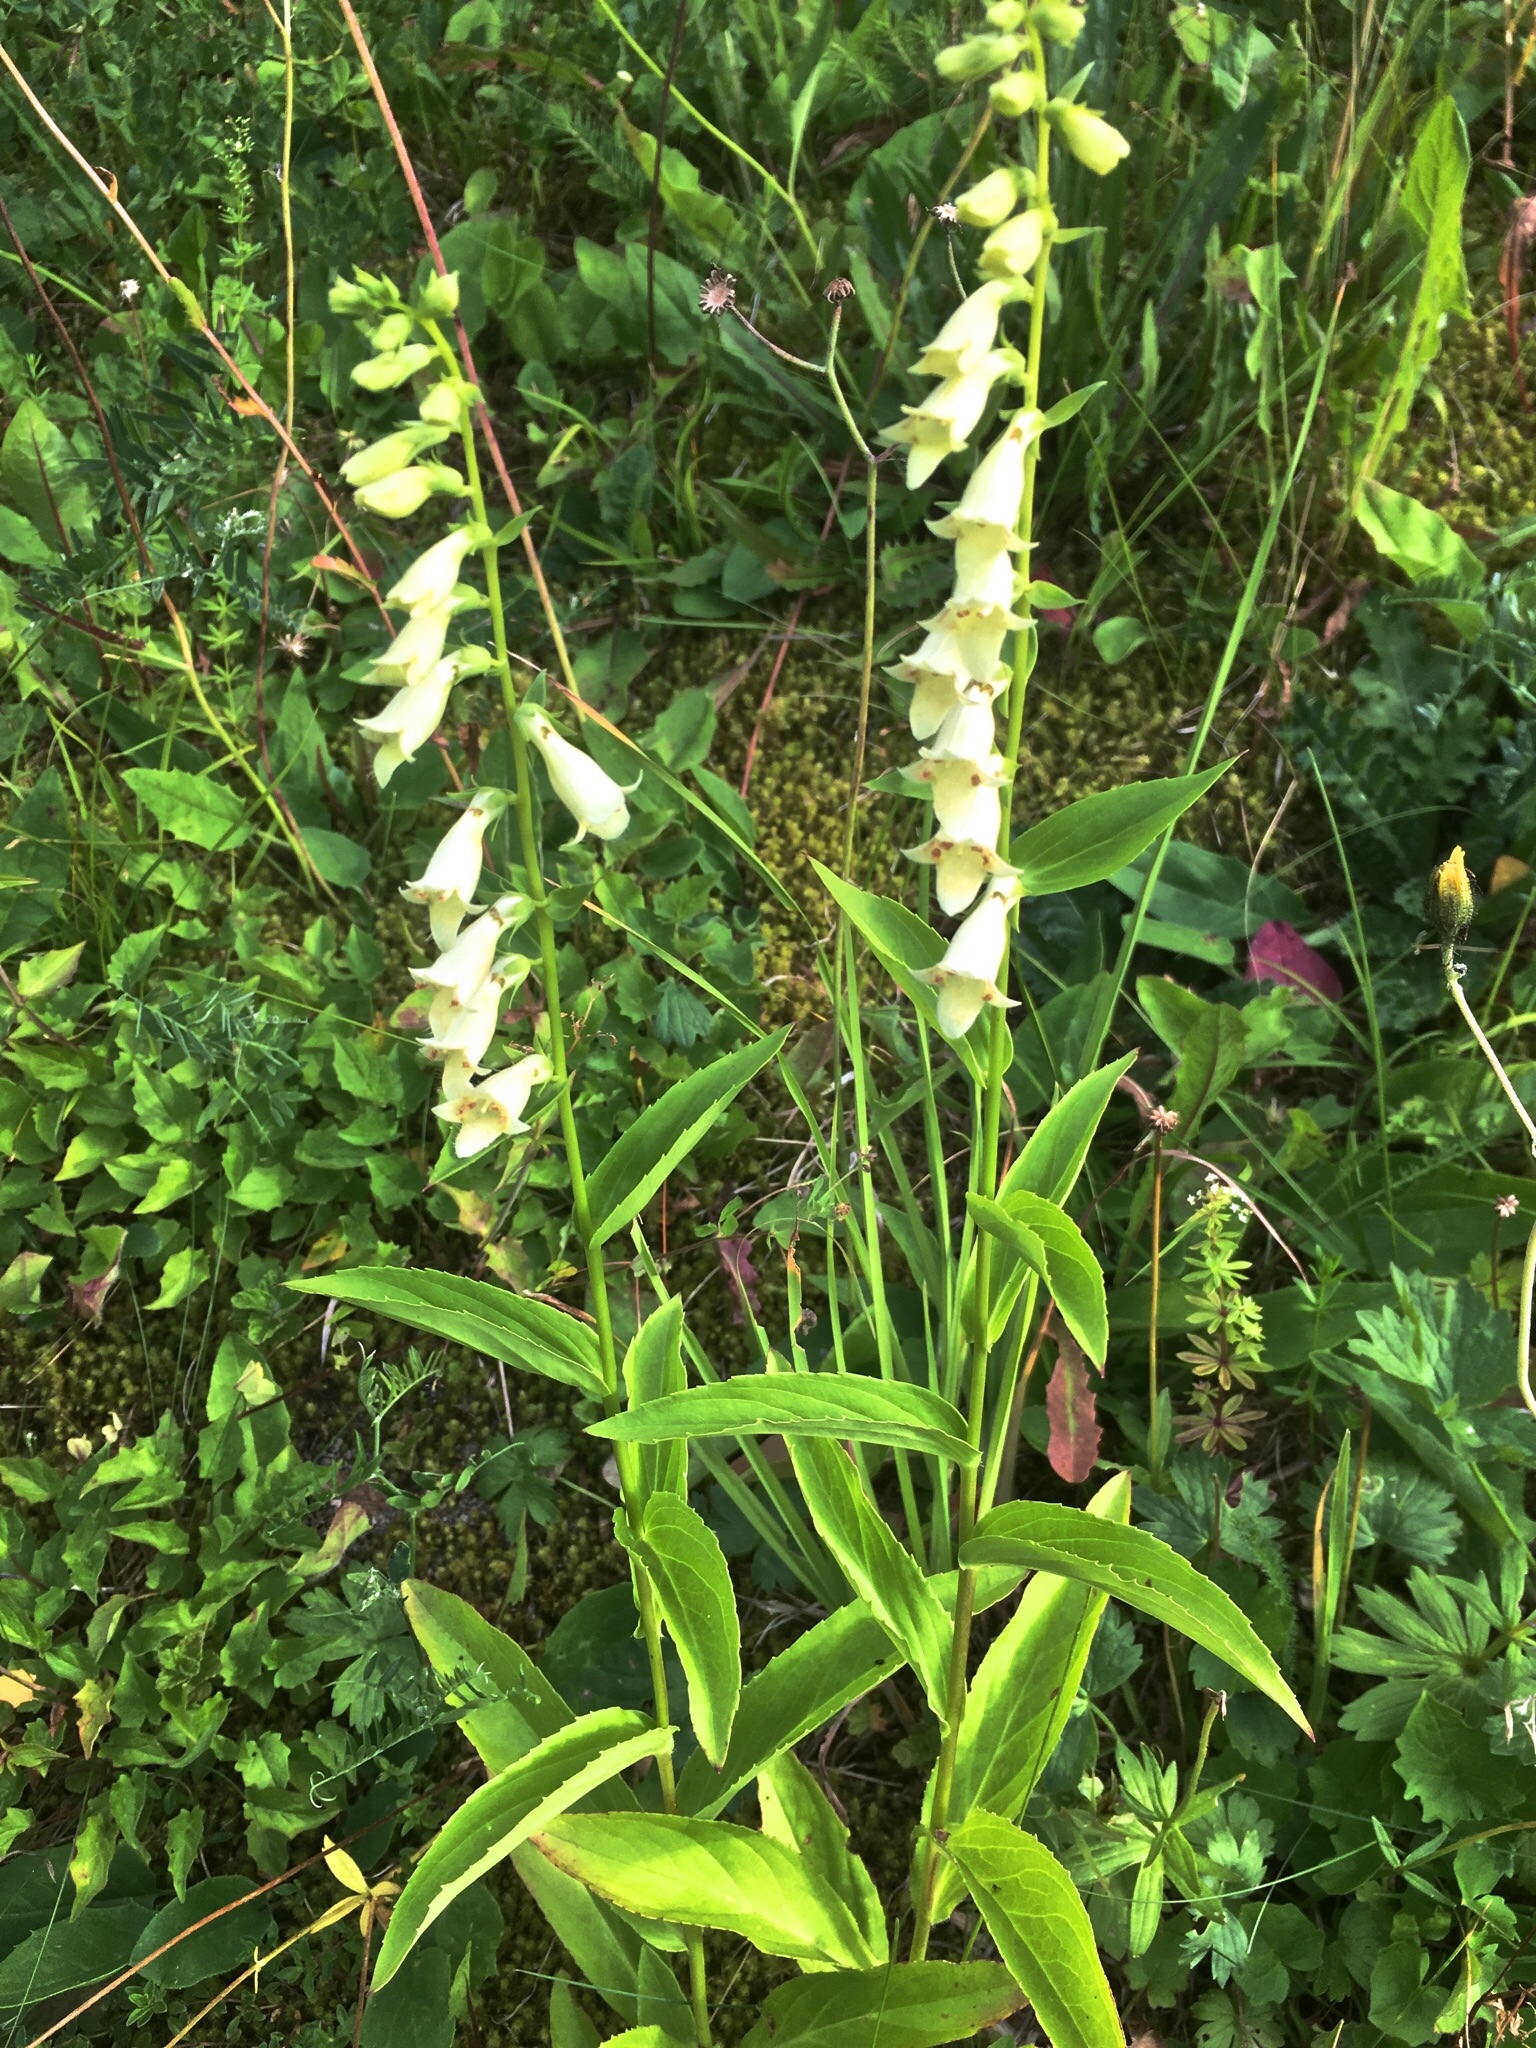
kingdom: Plantae
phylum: Tracheophyta
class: Magnoliopsida
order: Lamiales
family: Plantaginaceae
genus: Digitalis
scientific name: Digitalis lutea
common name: Straw foxglove
